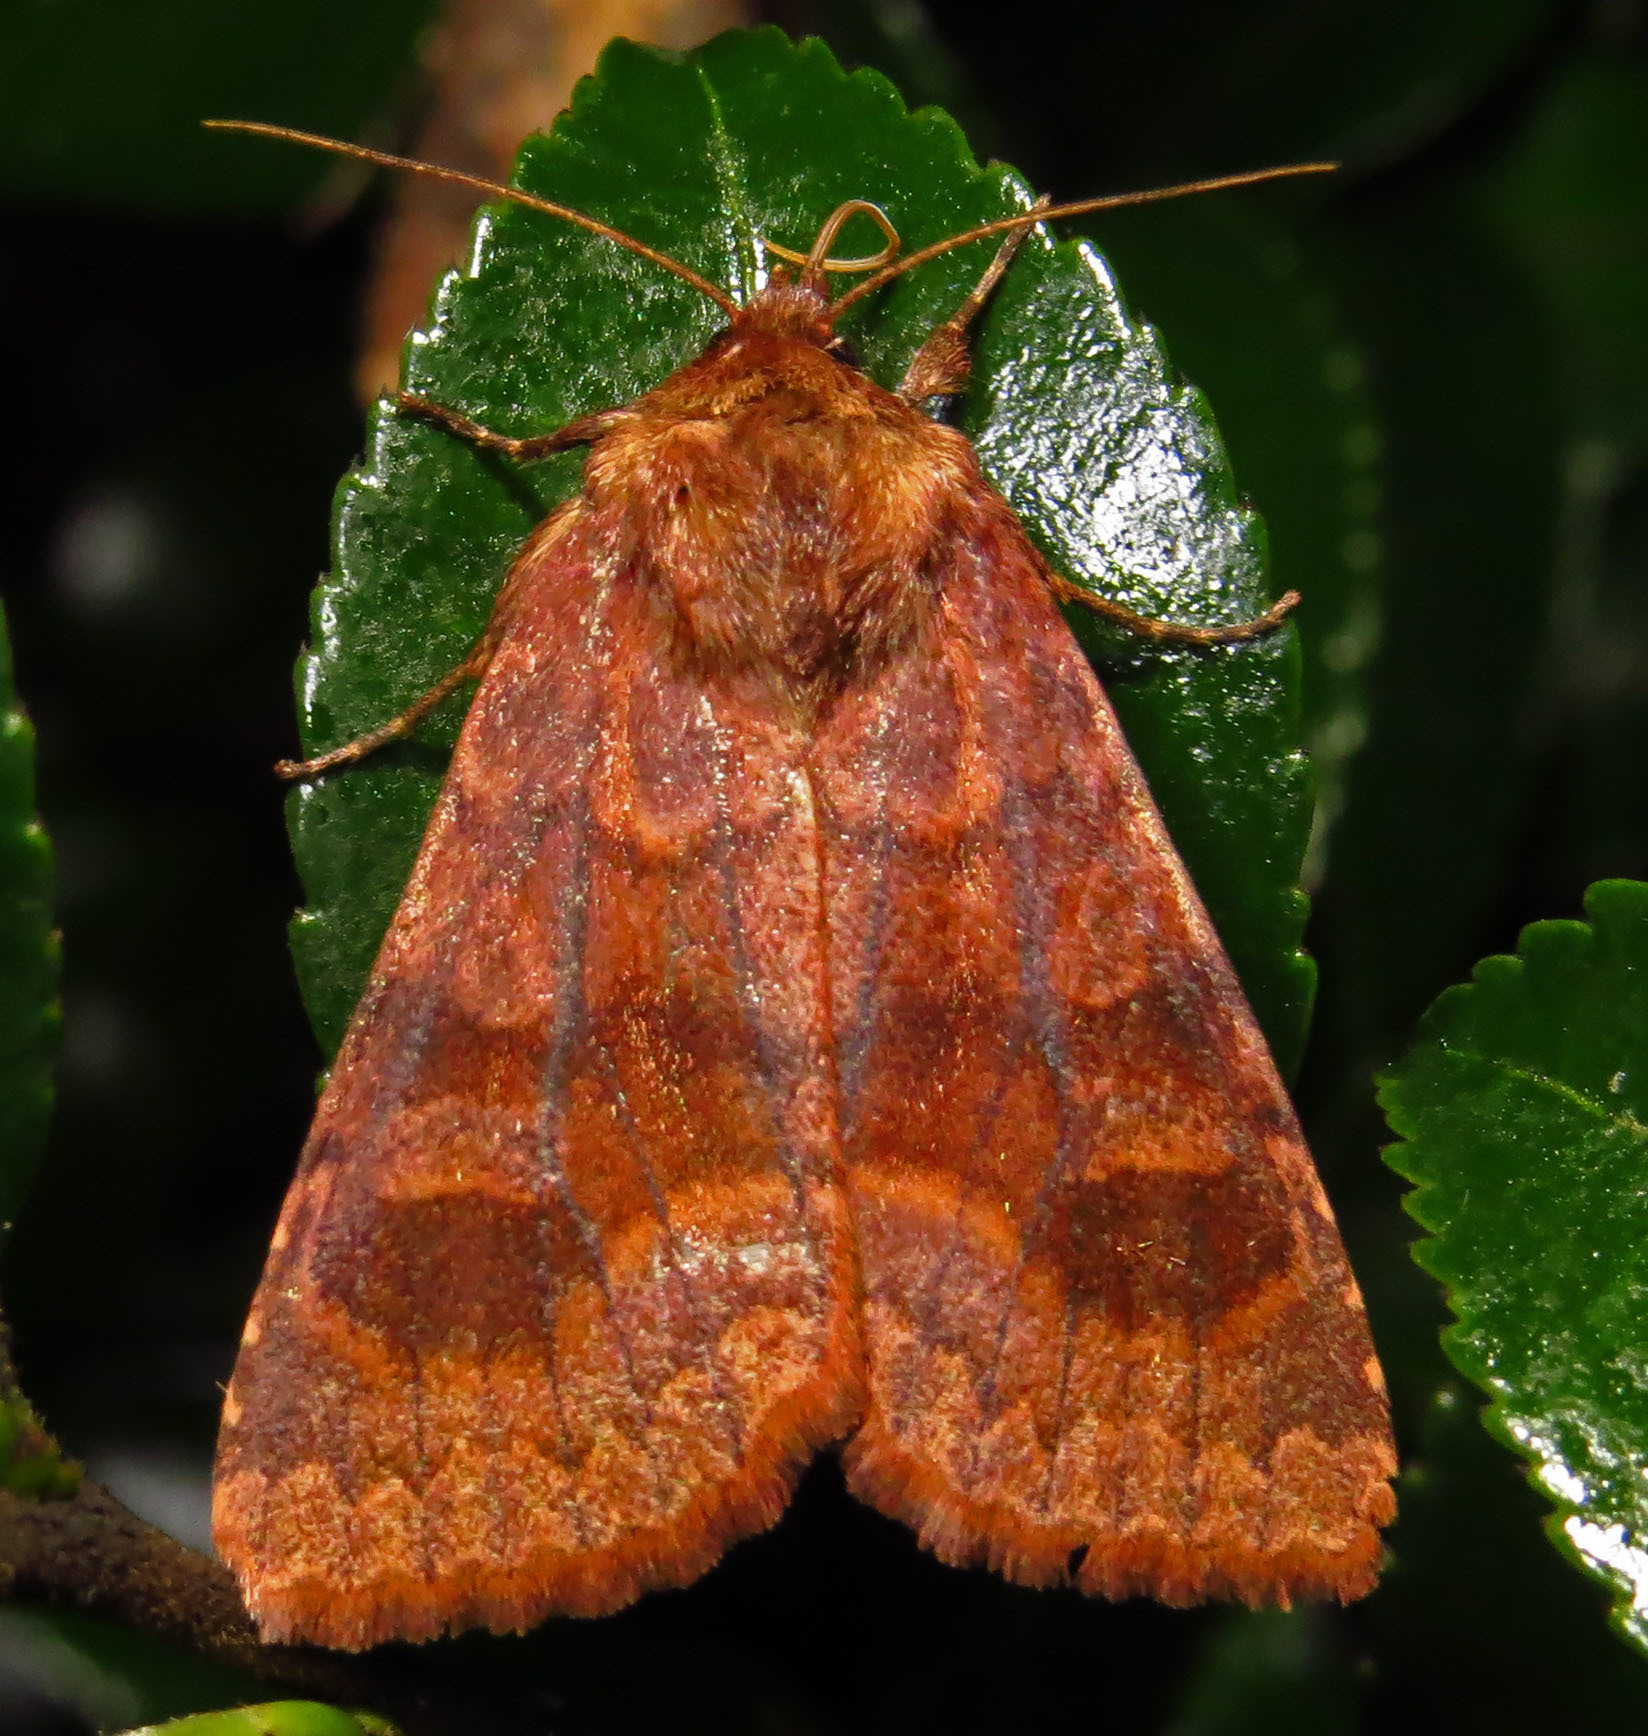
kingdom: Animalia
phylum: Arthropoda
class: Insecta
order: Lepidoptera
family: Noctuidae
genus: Nephelodes
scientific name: Nephelodes minians
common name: Bronzed cutworm
